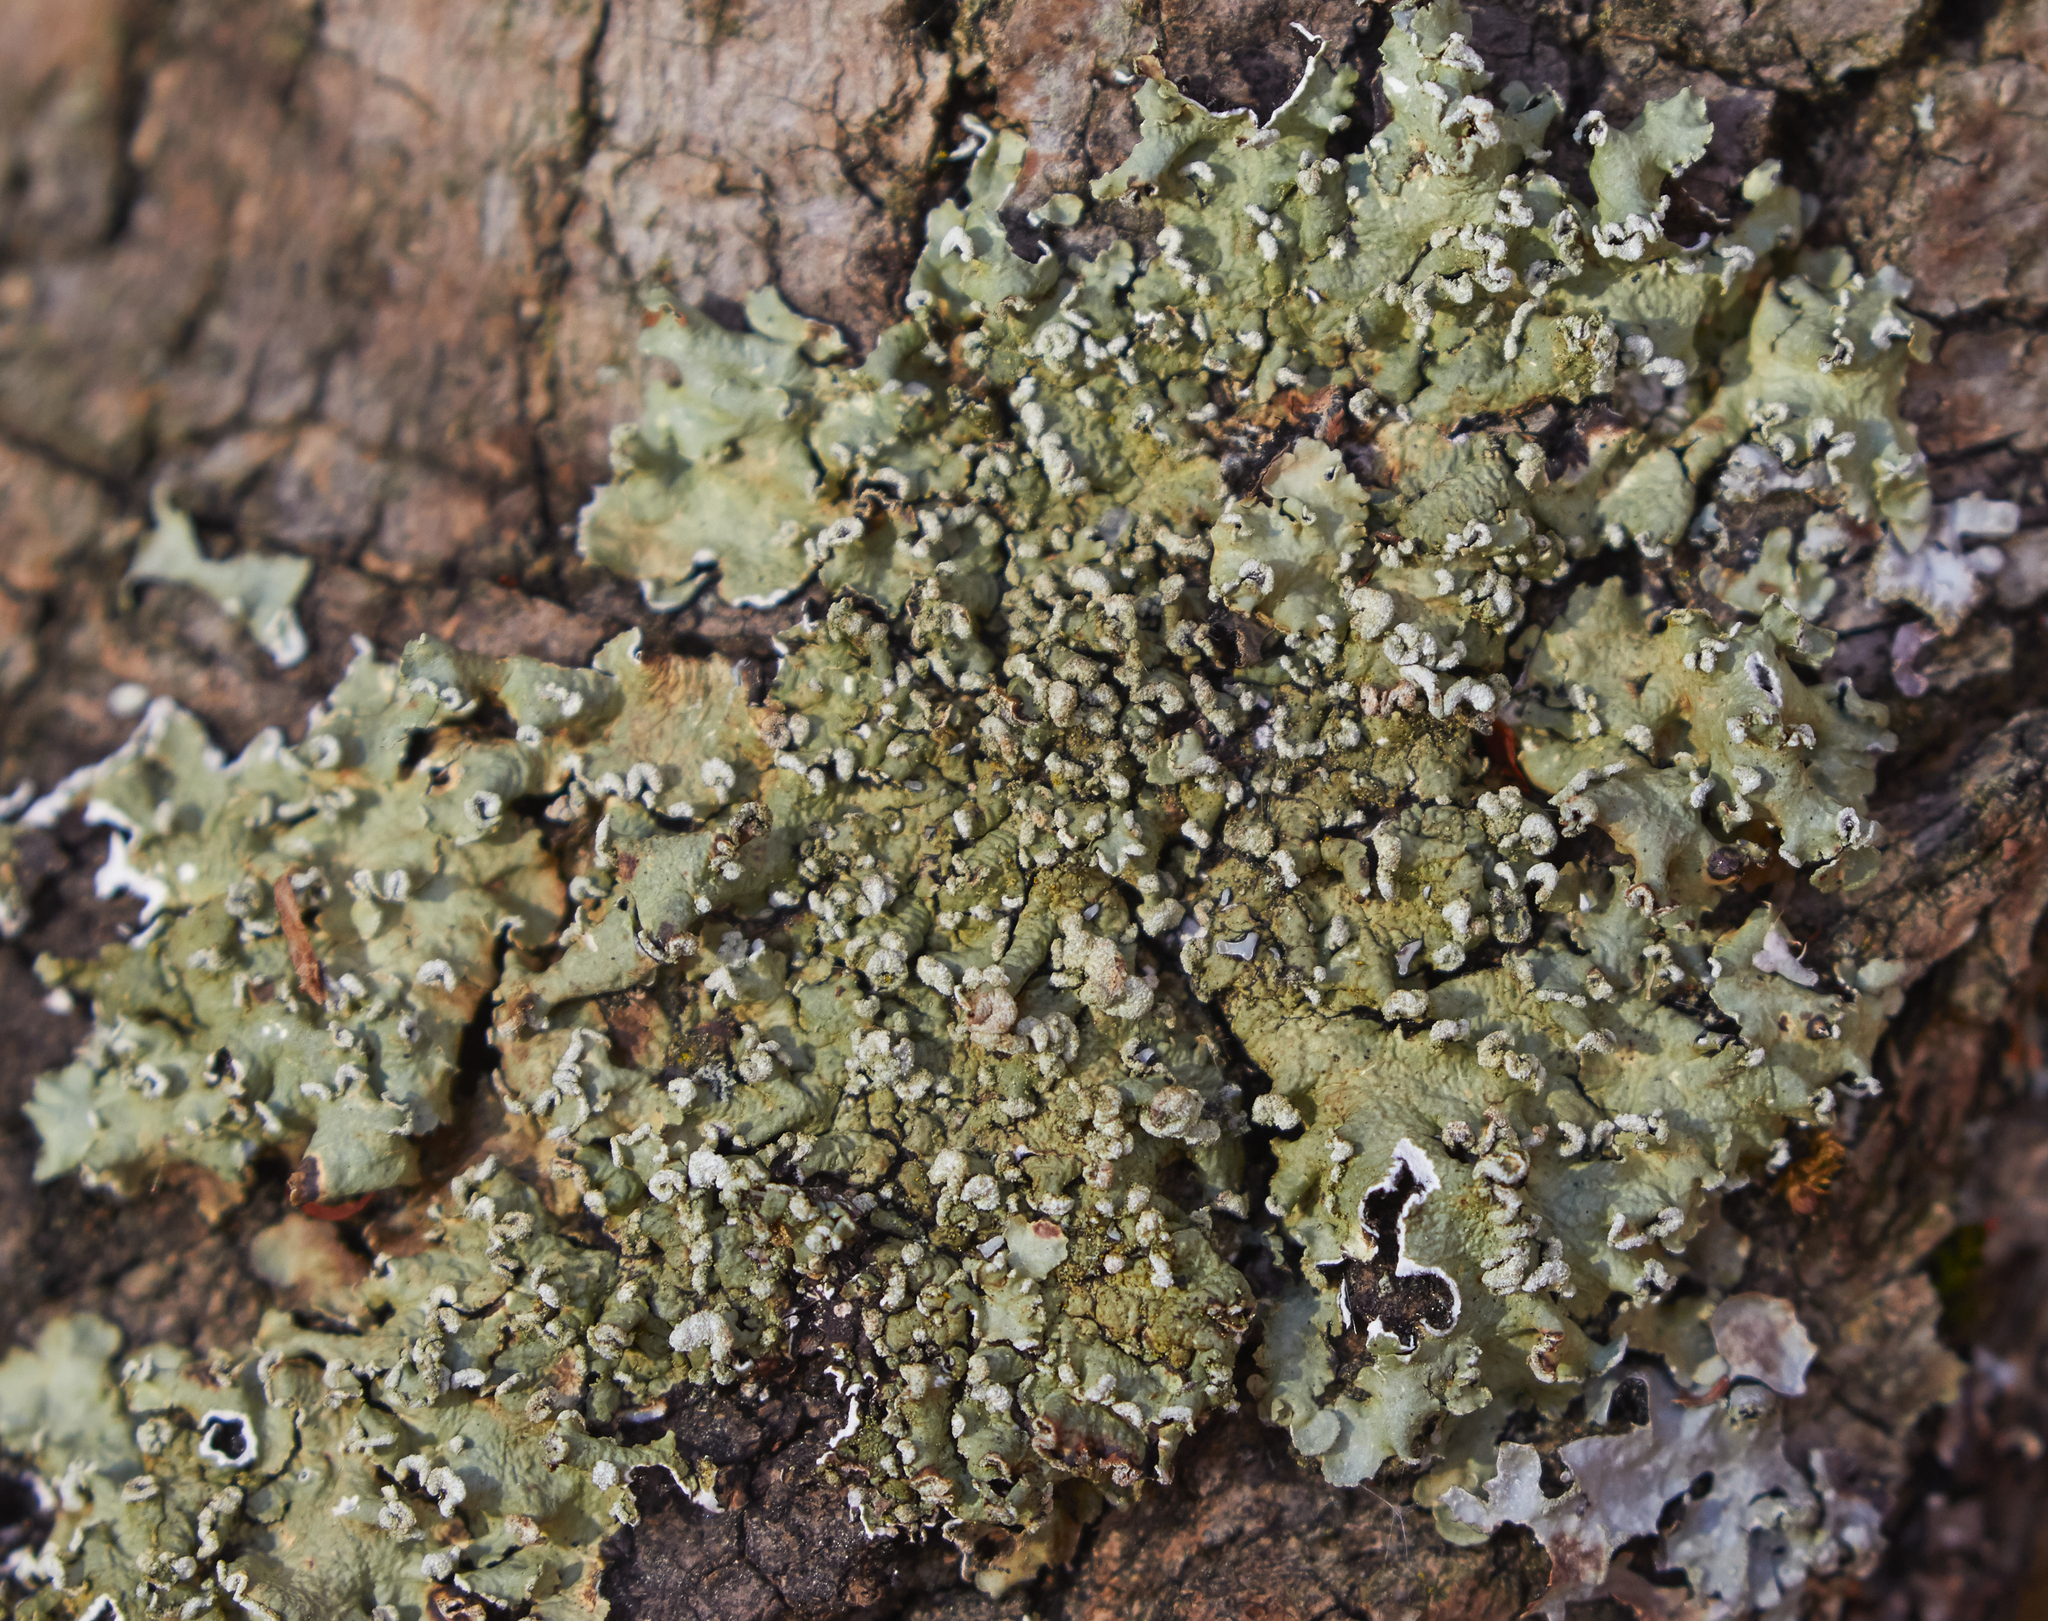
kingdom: Fungi
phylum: Ascomycota
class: Lecanoromycetes
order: Lecanorales
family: Parmeliaceae
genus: Flavopunctelia
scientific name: Flavopunctelia soredica
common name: Powder-edged speckled greenshield
